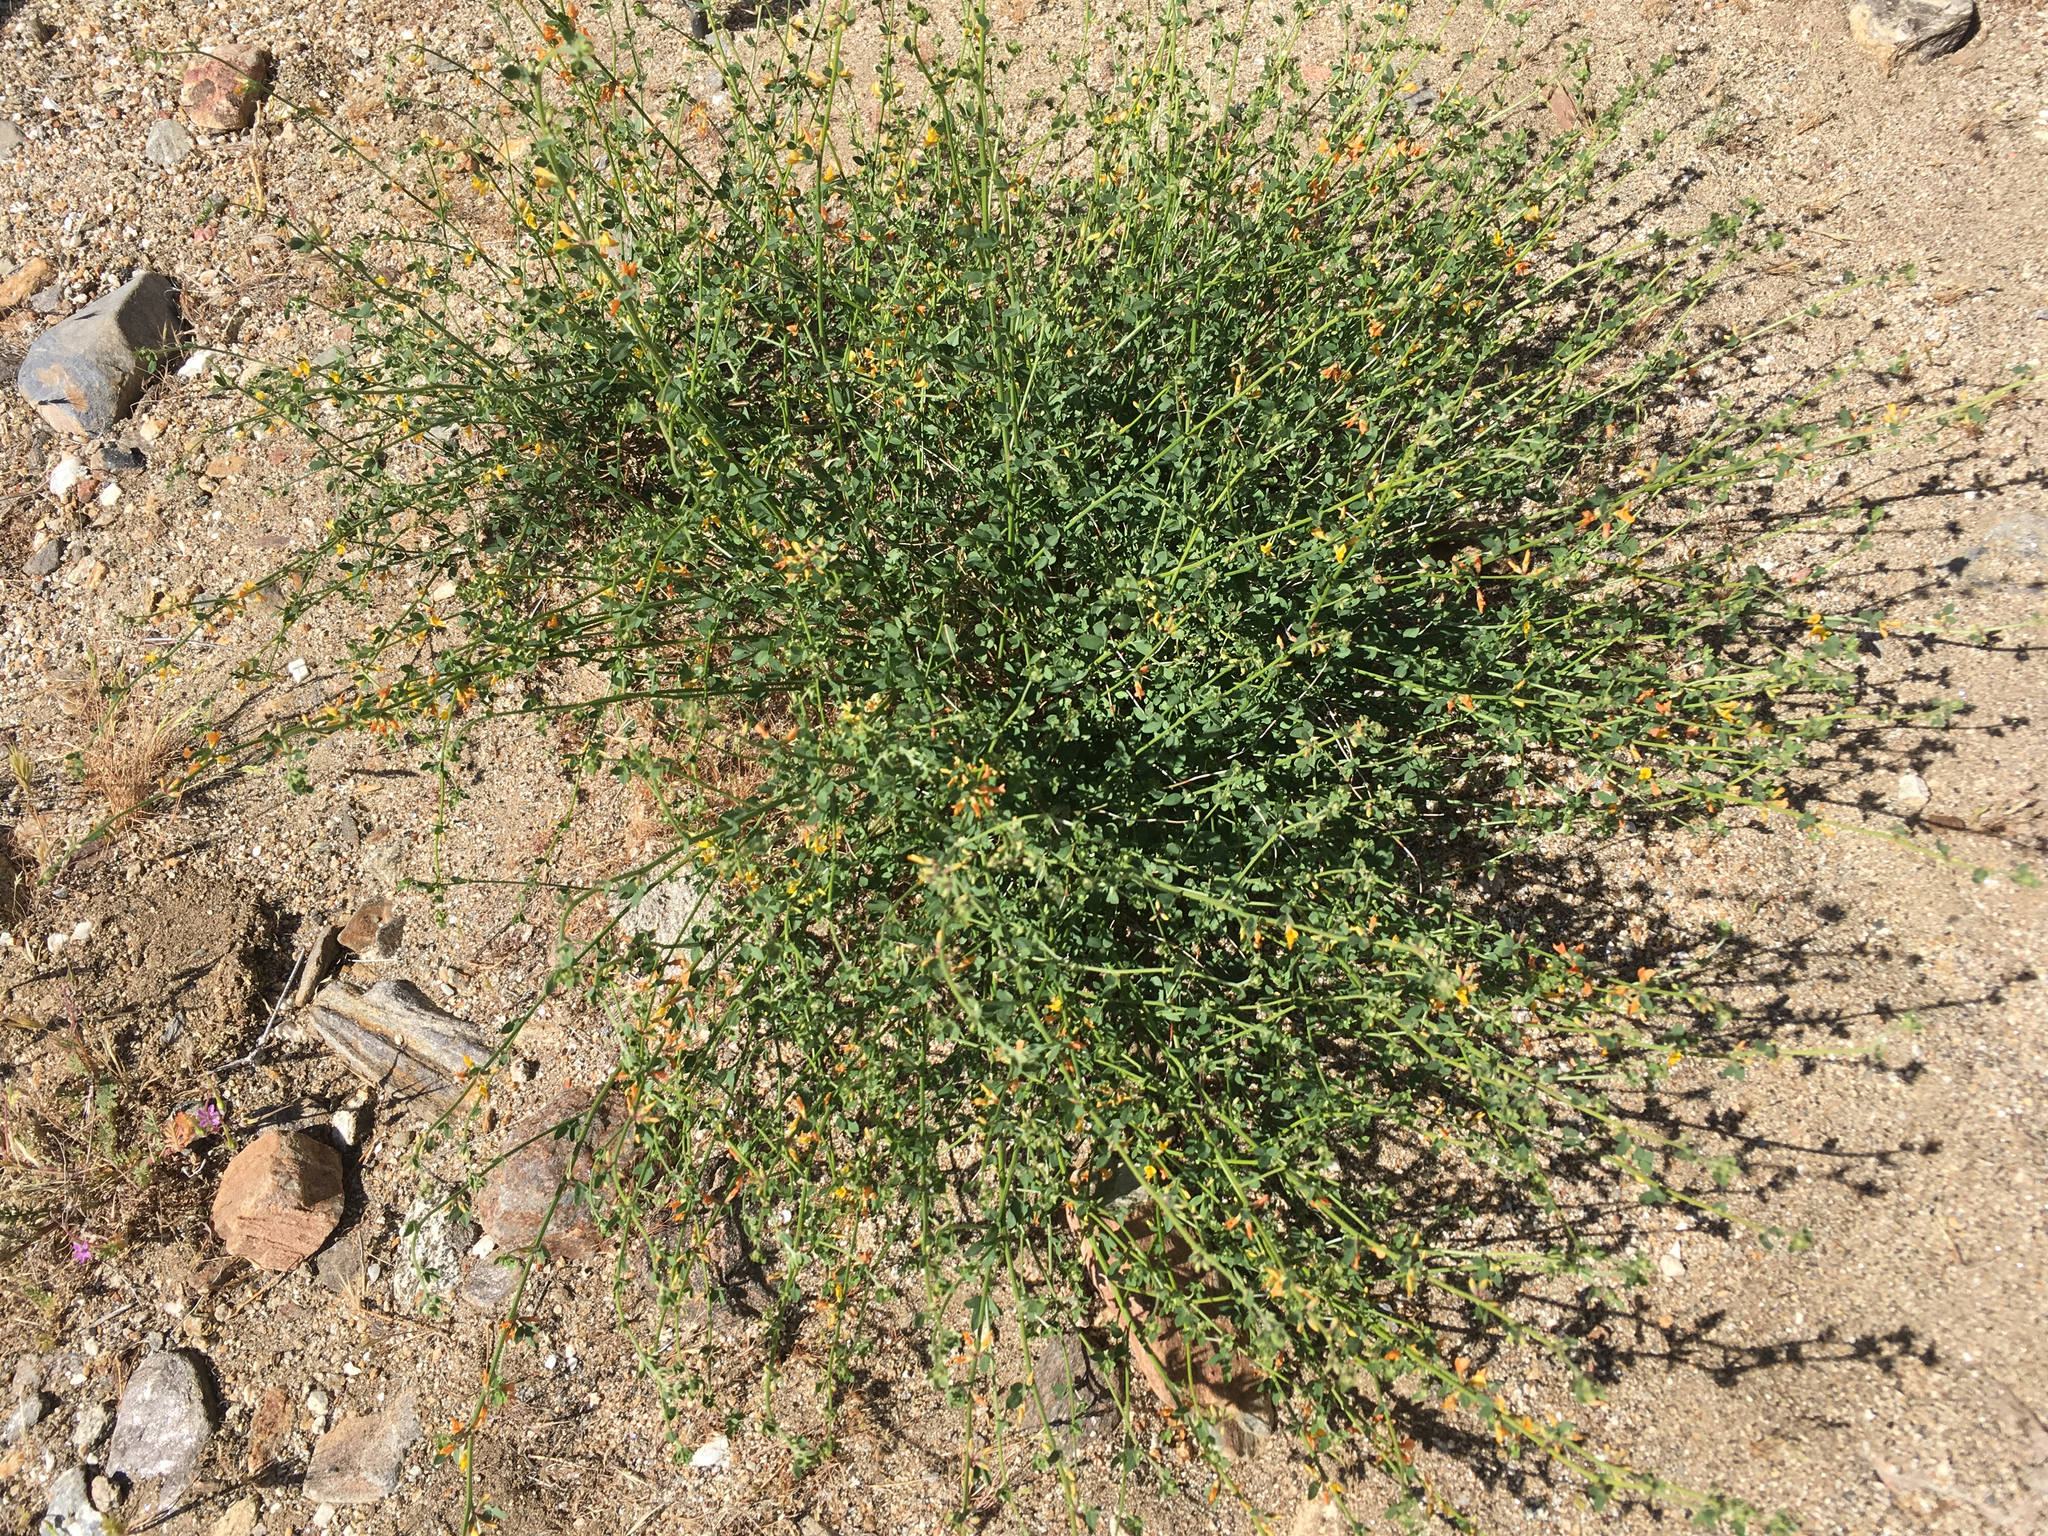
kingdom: Plantae
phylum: Tracheophyta
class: Magnoliopsida
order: Fabales
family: Fabaceae
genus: Acmispon
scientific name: Acmispon glaber
